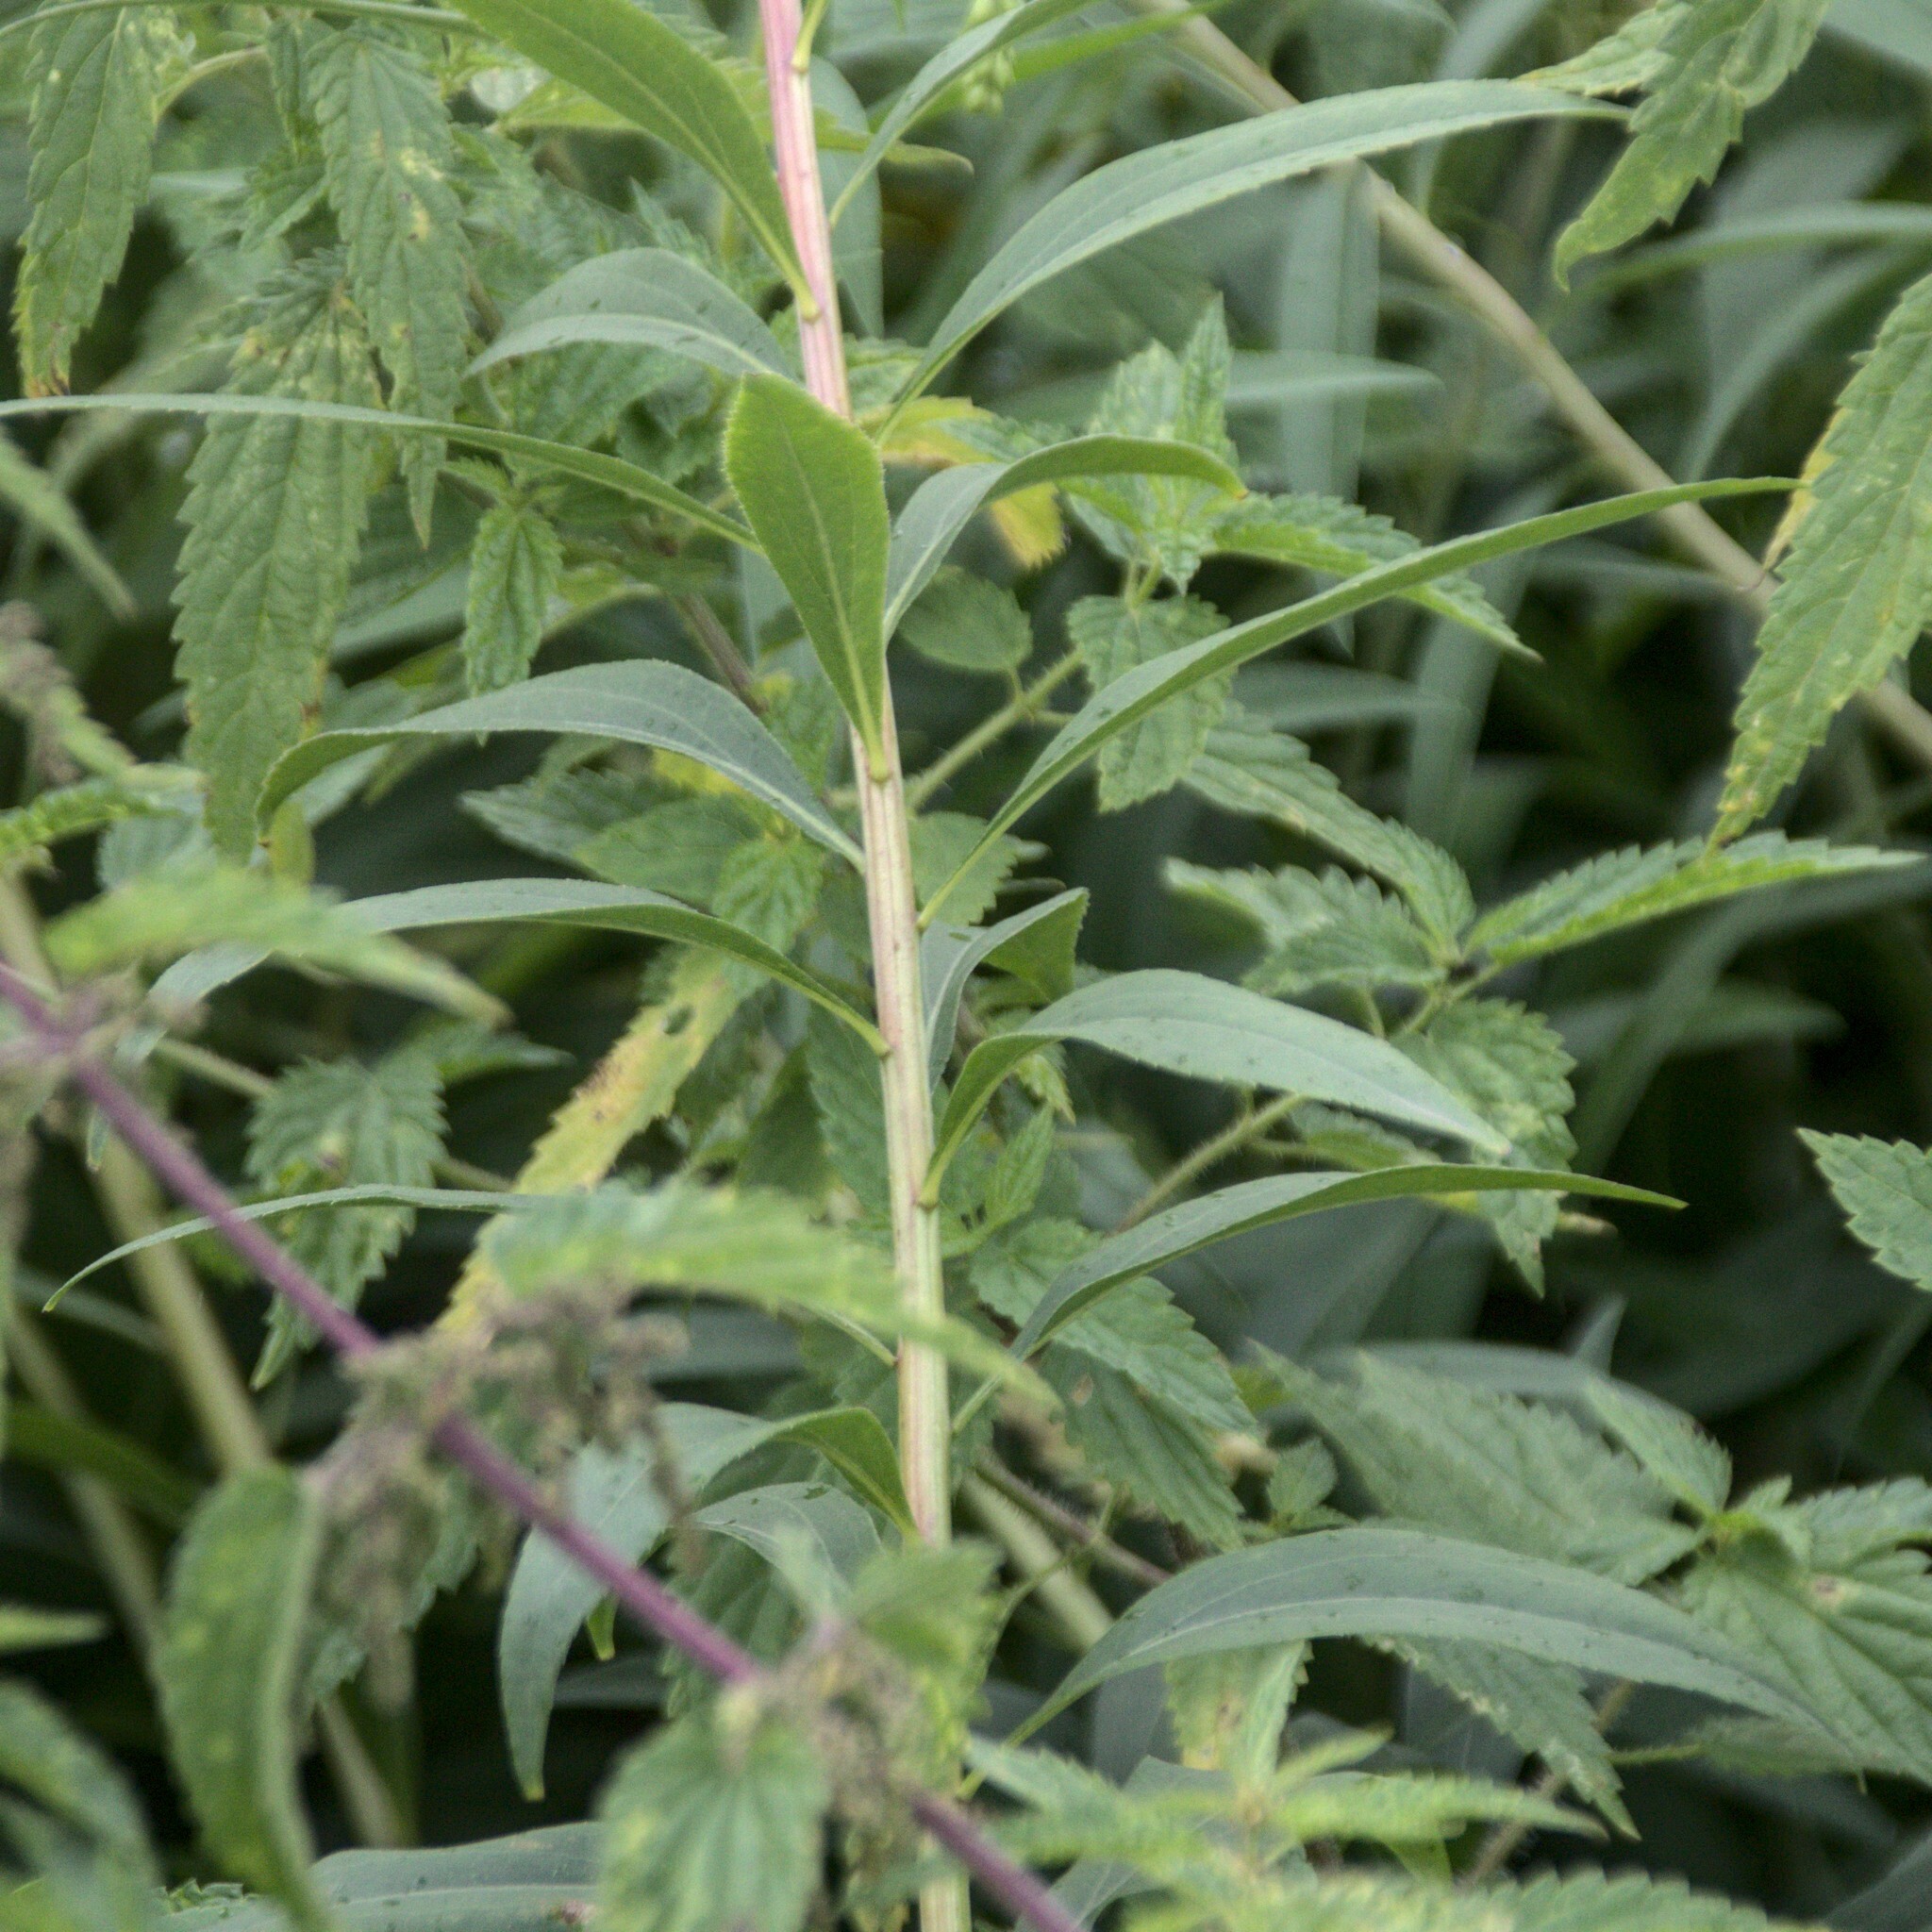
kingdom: Plantae
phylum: Tracheophyta
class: Magnoliopsida
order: Asterales
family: Asteraceae
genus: Solidago
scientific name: Solidago canadensis
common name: Canada goldenrod
